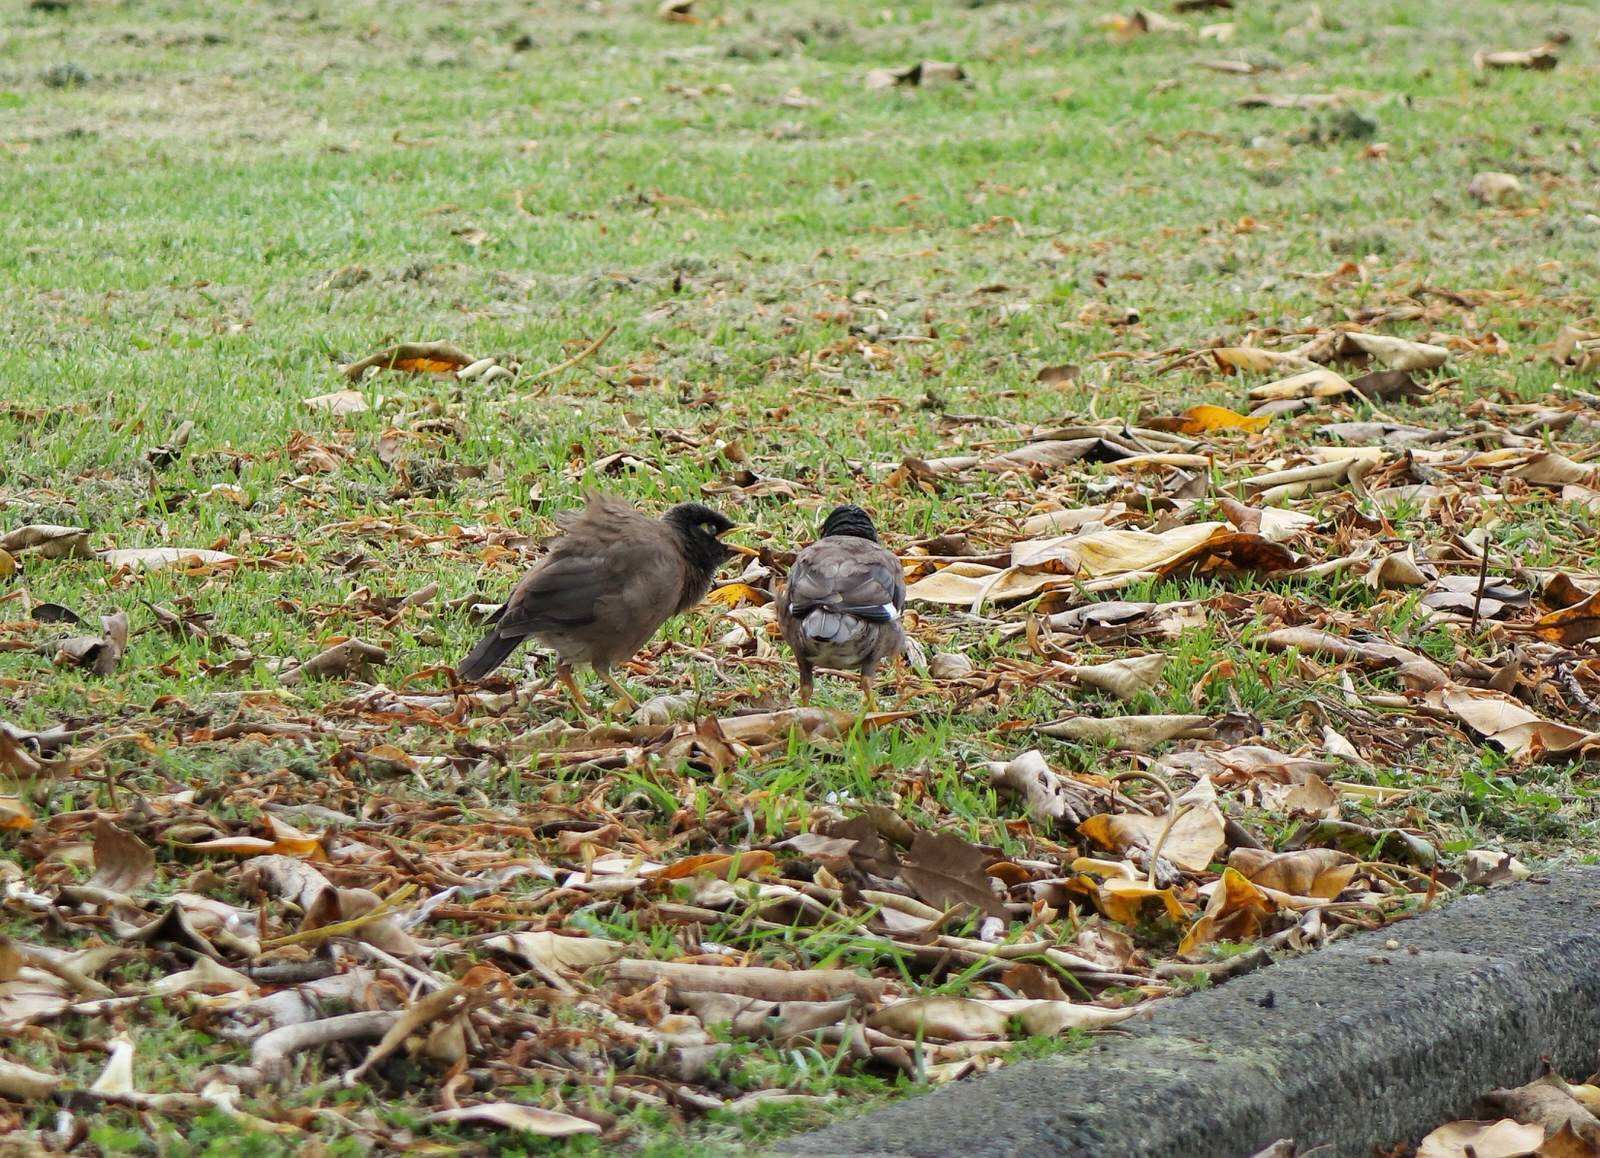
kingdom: Animalia
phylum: Chordata
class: Aves
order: Passeriformes
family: Sturnidae
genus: Acridotheres
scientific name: Acridotheres tristis
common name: Common myna
